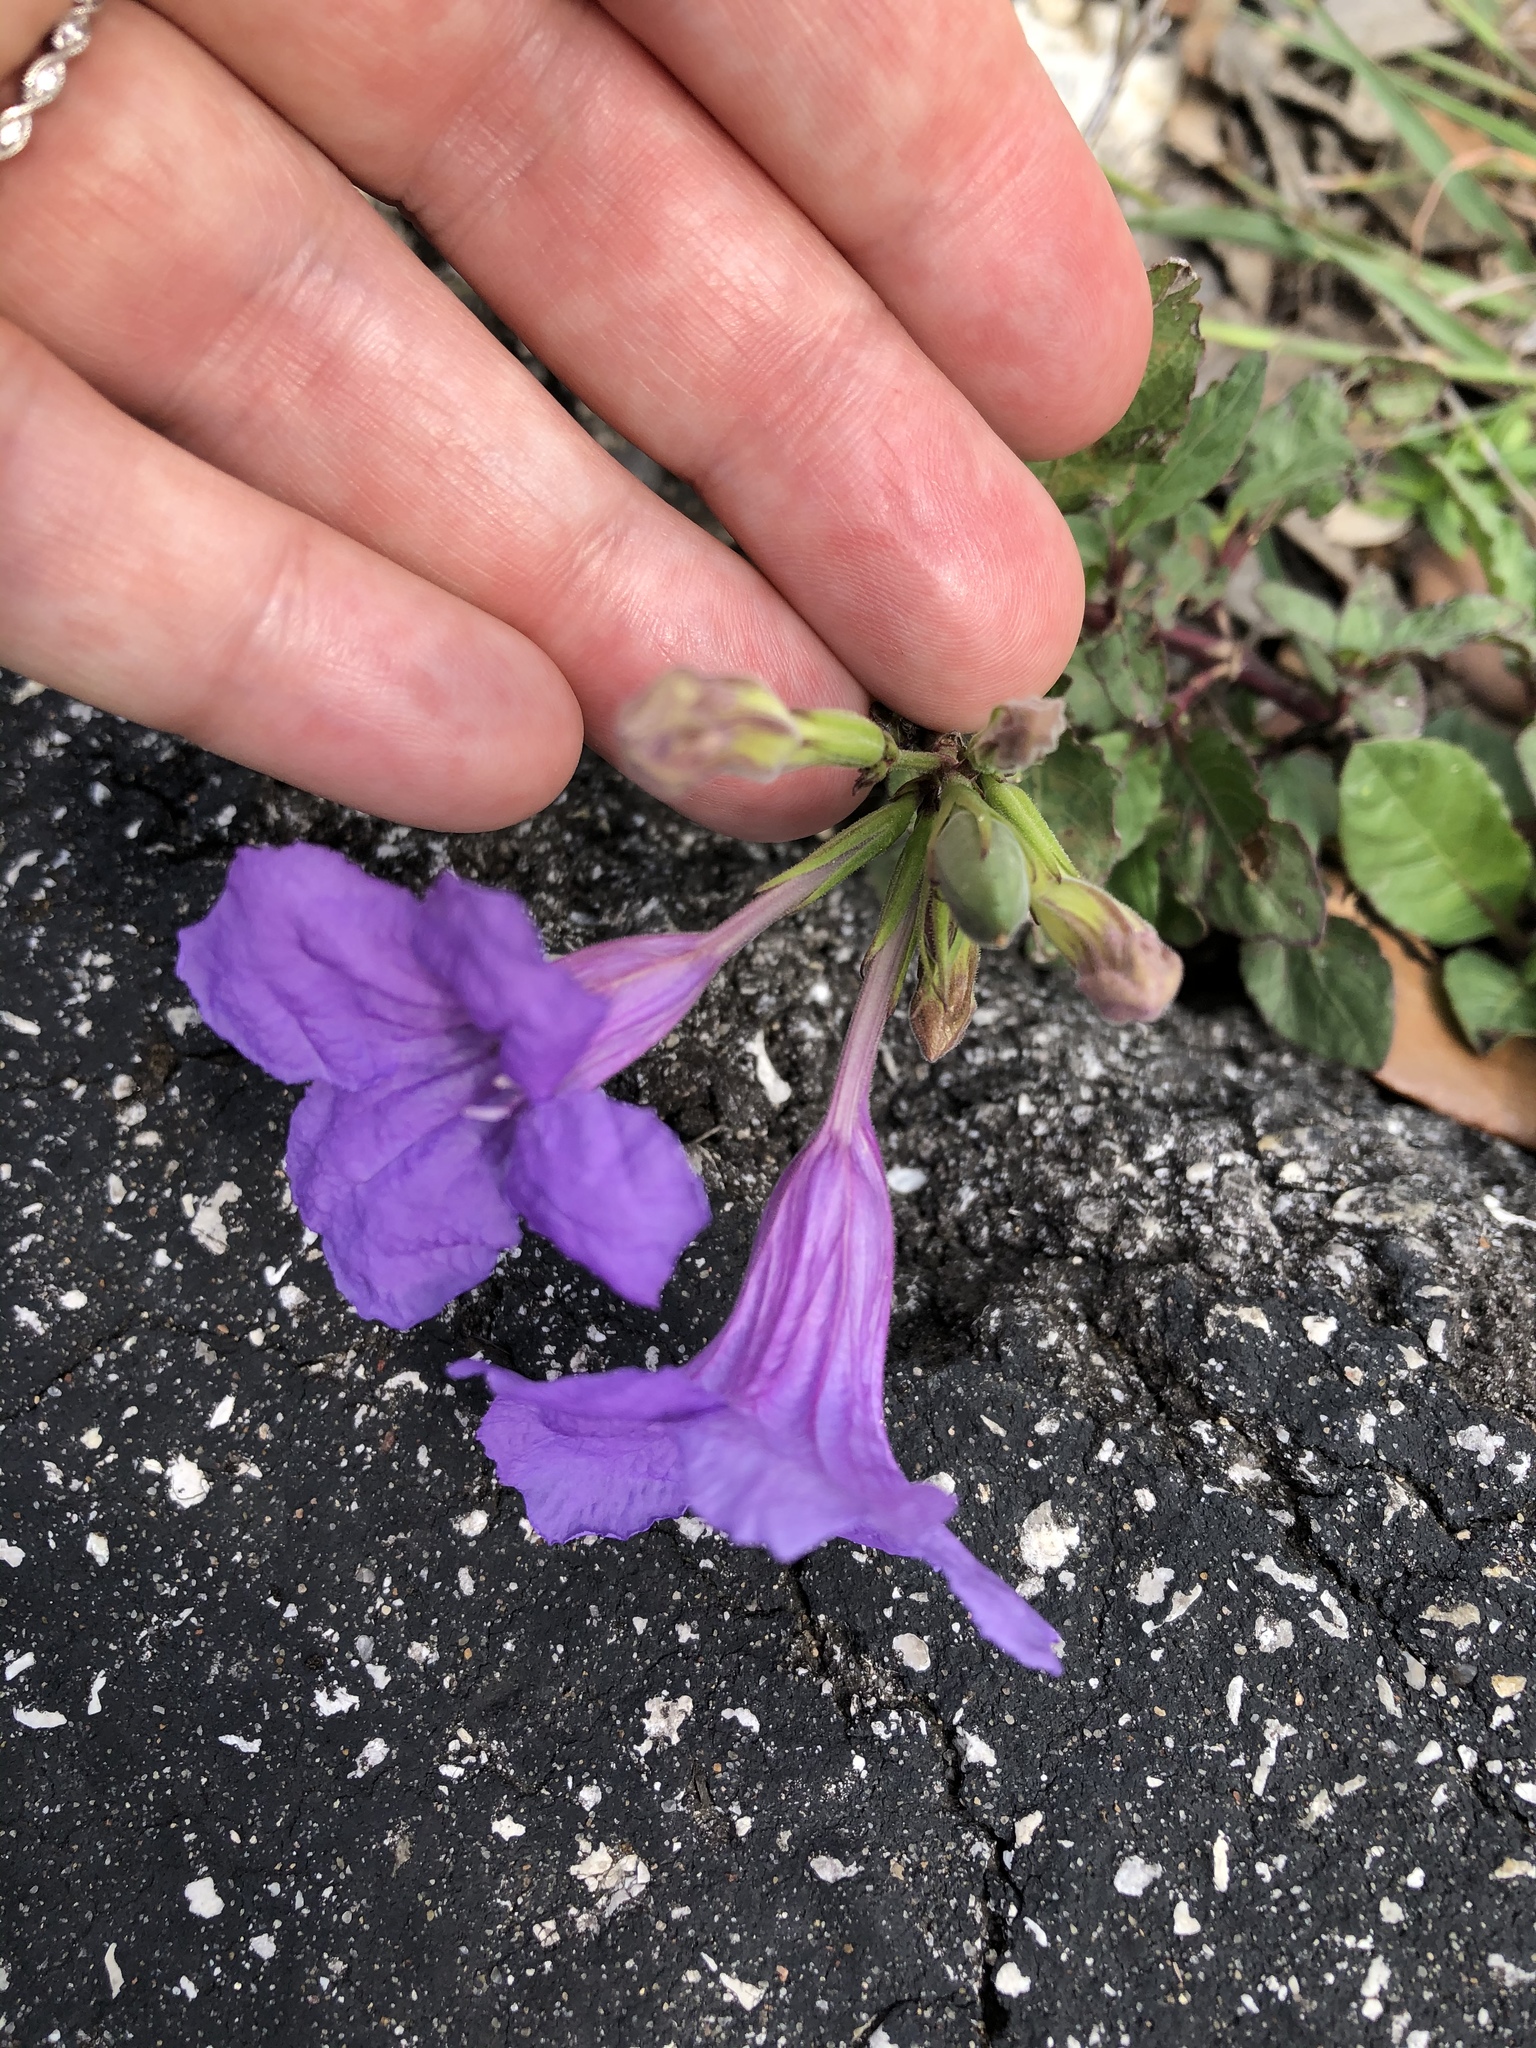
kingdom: Plantae
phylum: Tracheophyta
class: Magnoliopsida
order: Lamiales
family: Acanthaceae
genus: Ruellia
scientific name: Ruellia ciliatiflora
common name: Hairyflower wild petunia
